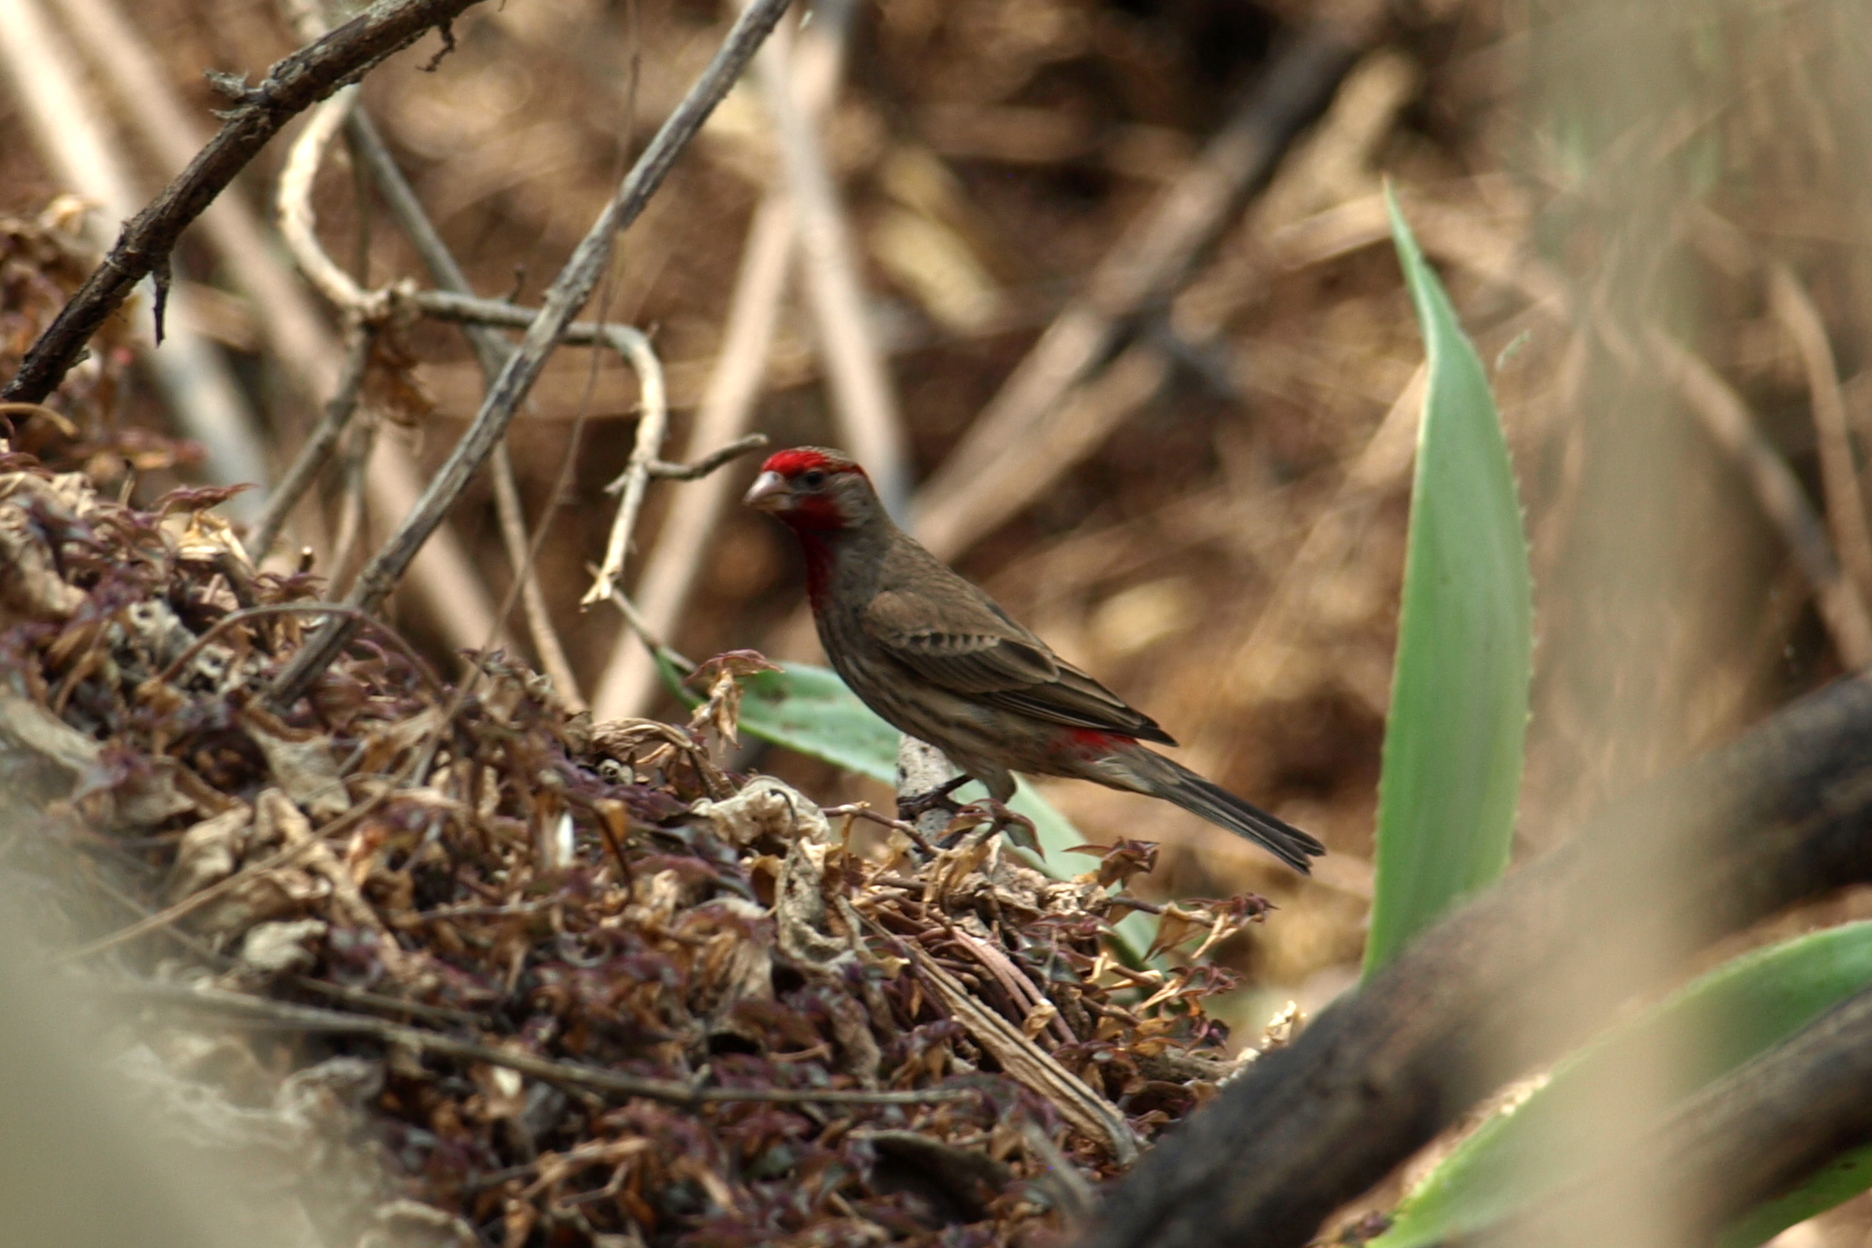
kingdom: Animalia
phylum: Chordata
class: Aves
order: Passeriformes
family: Fringillidae
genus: Haemorhous
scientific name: Haemorhous mexicanus
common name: House finch
